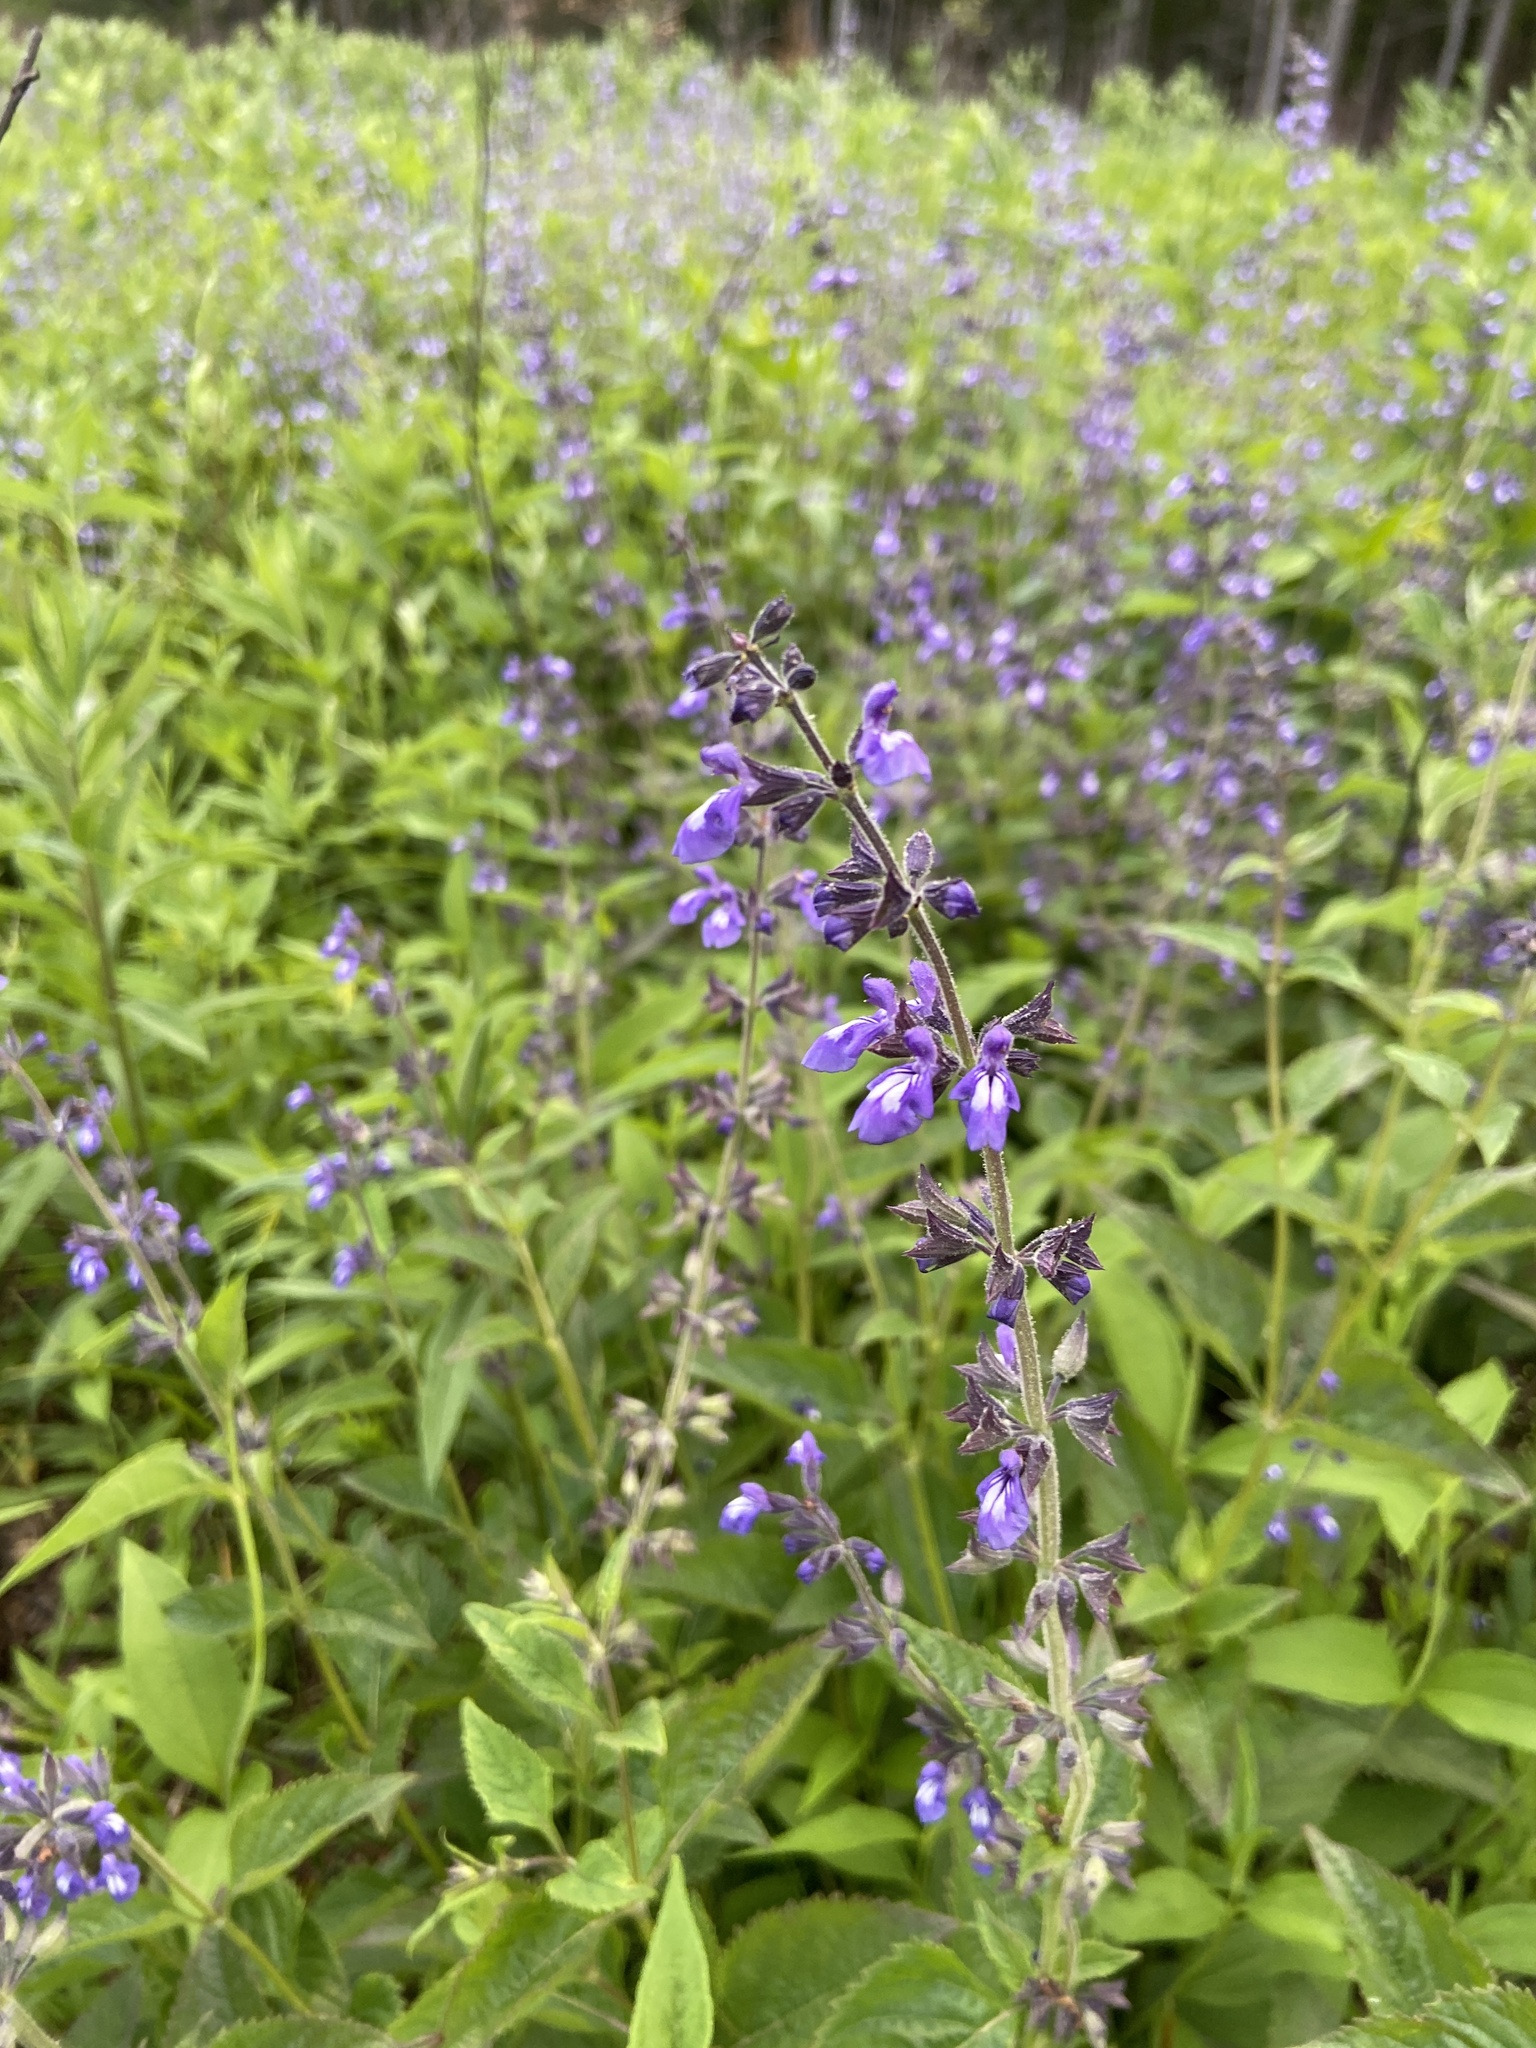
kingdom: Plantae
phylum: Tracheophyta
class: Magnoliopsida
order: Lamiales
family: Lamiaceae
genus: Salvia
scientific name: Salvia urticifolia
